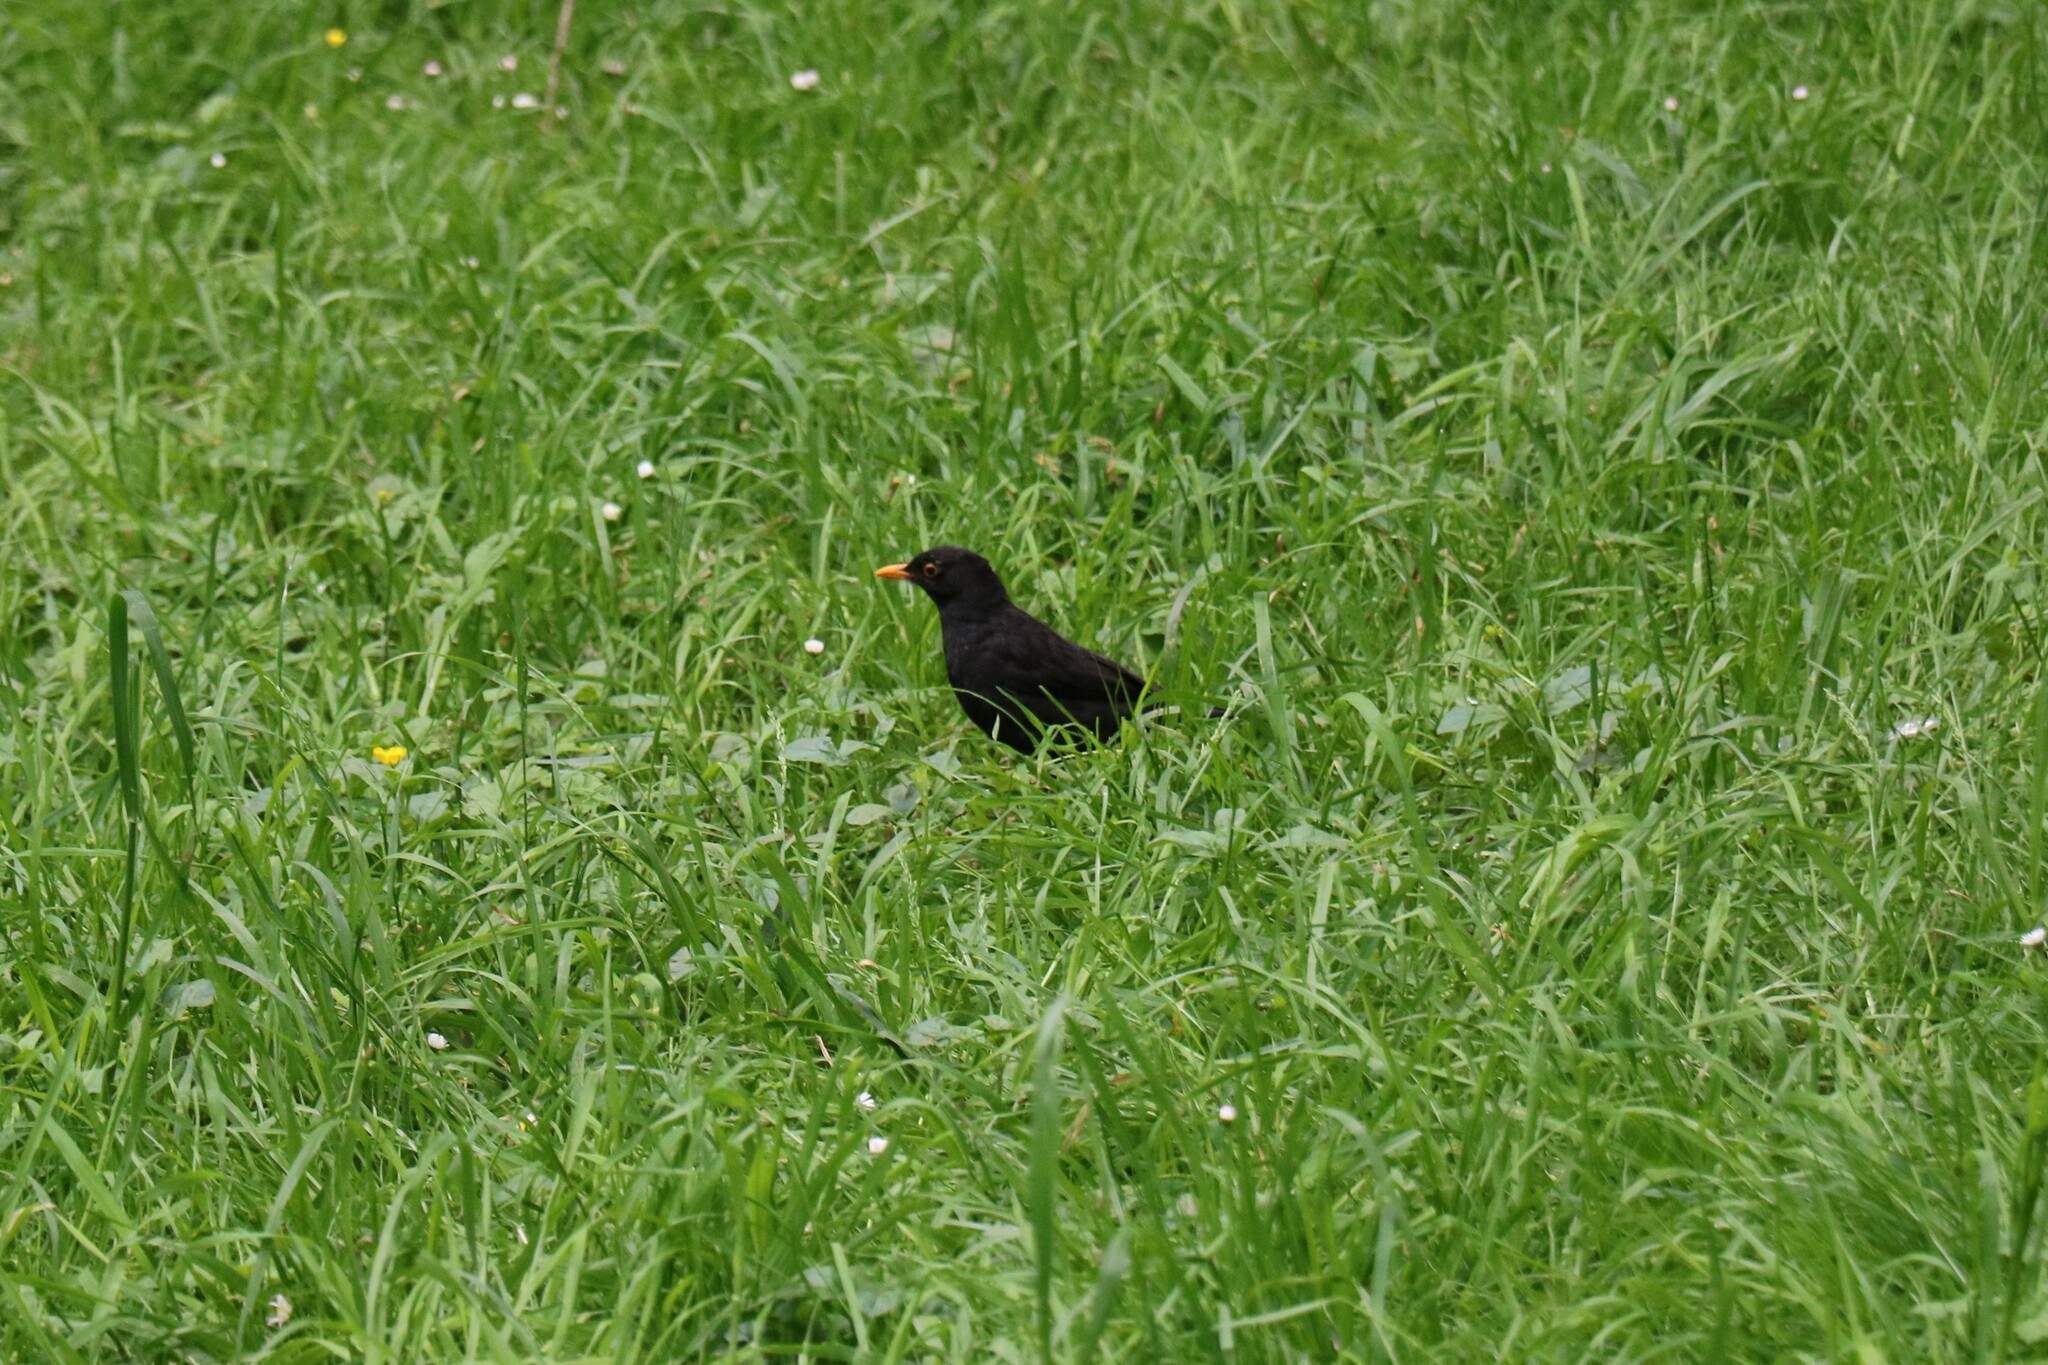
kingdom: Animalia
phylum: Chordata
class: Aves
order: Passeriformes
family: Turdidae
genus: Turdus
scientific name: Turdus merula
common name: Common blackbird
